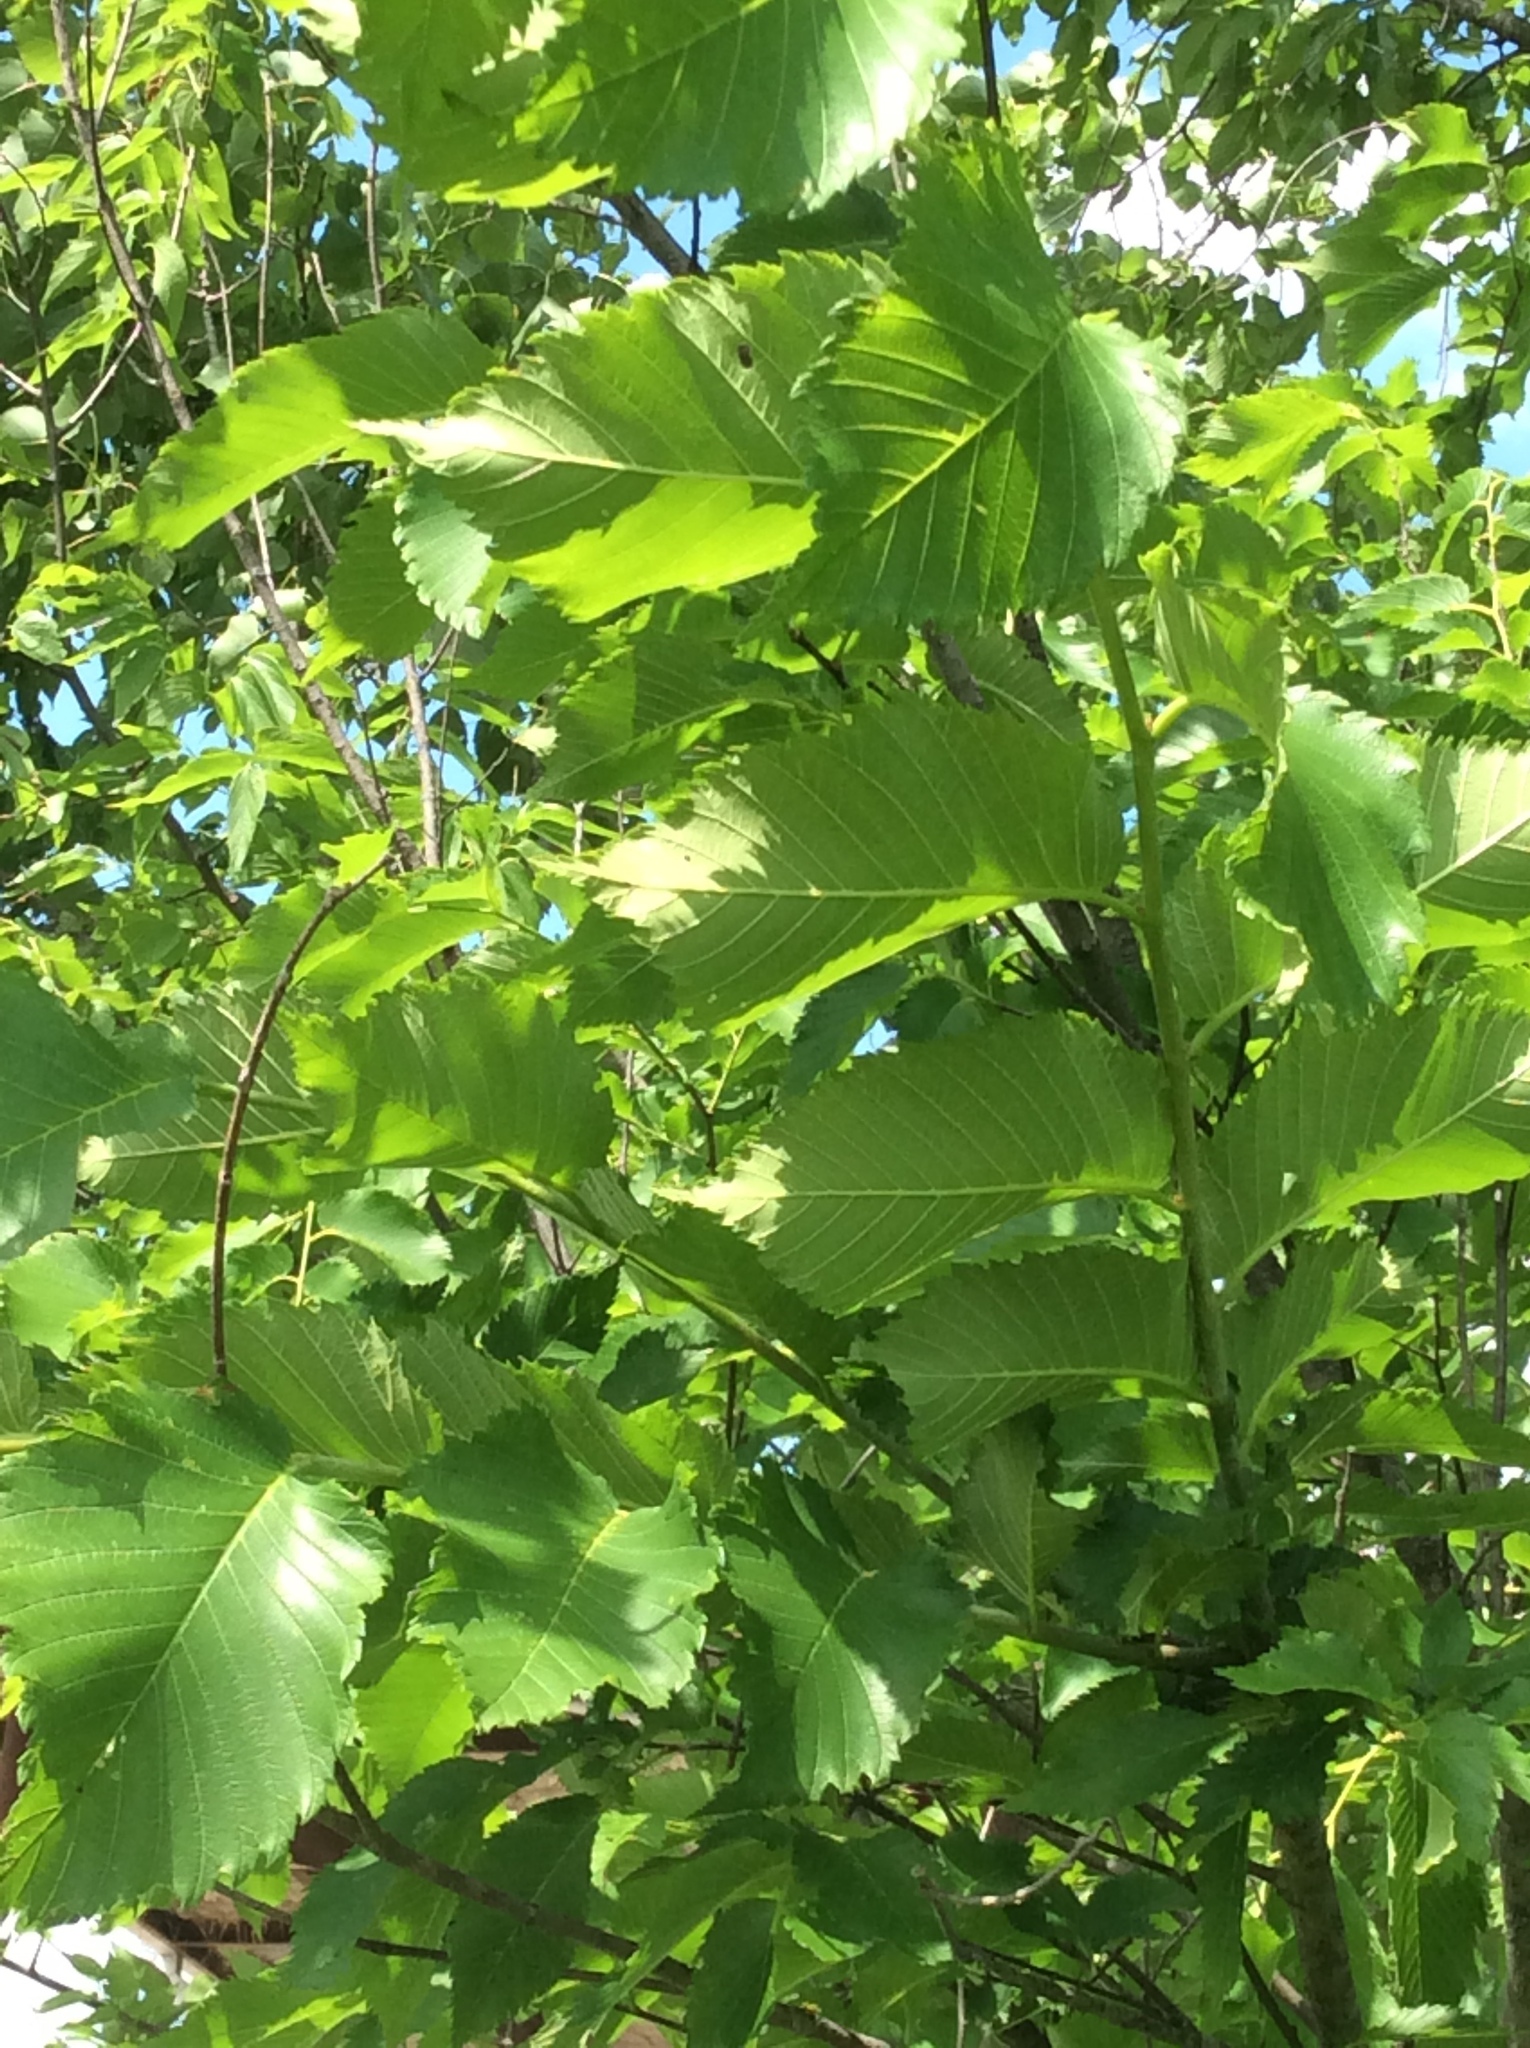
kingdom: Plantae
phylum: Tracheophyta
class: Magnoliopsida
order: Rosales
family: Ulmaceae
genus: Ulmus
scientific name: Ulmus americana
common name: American elm
